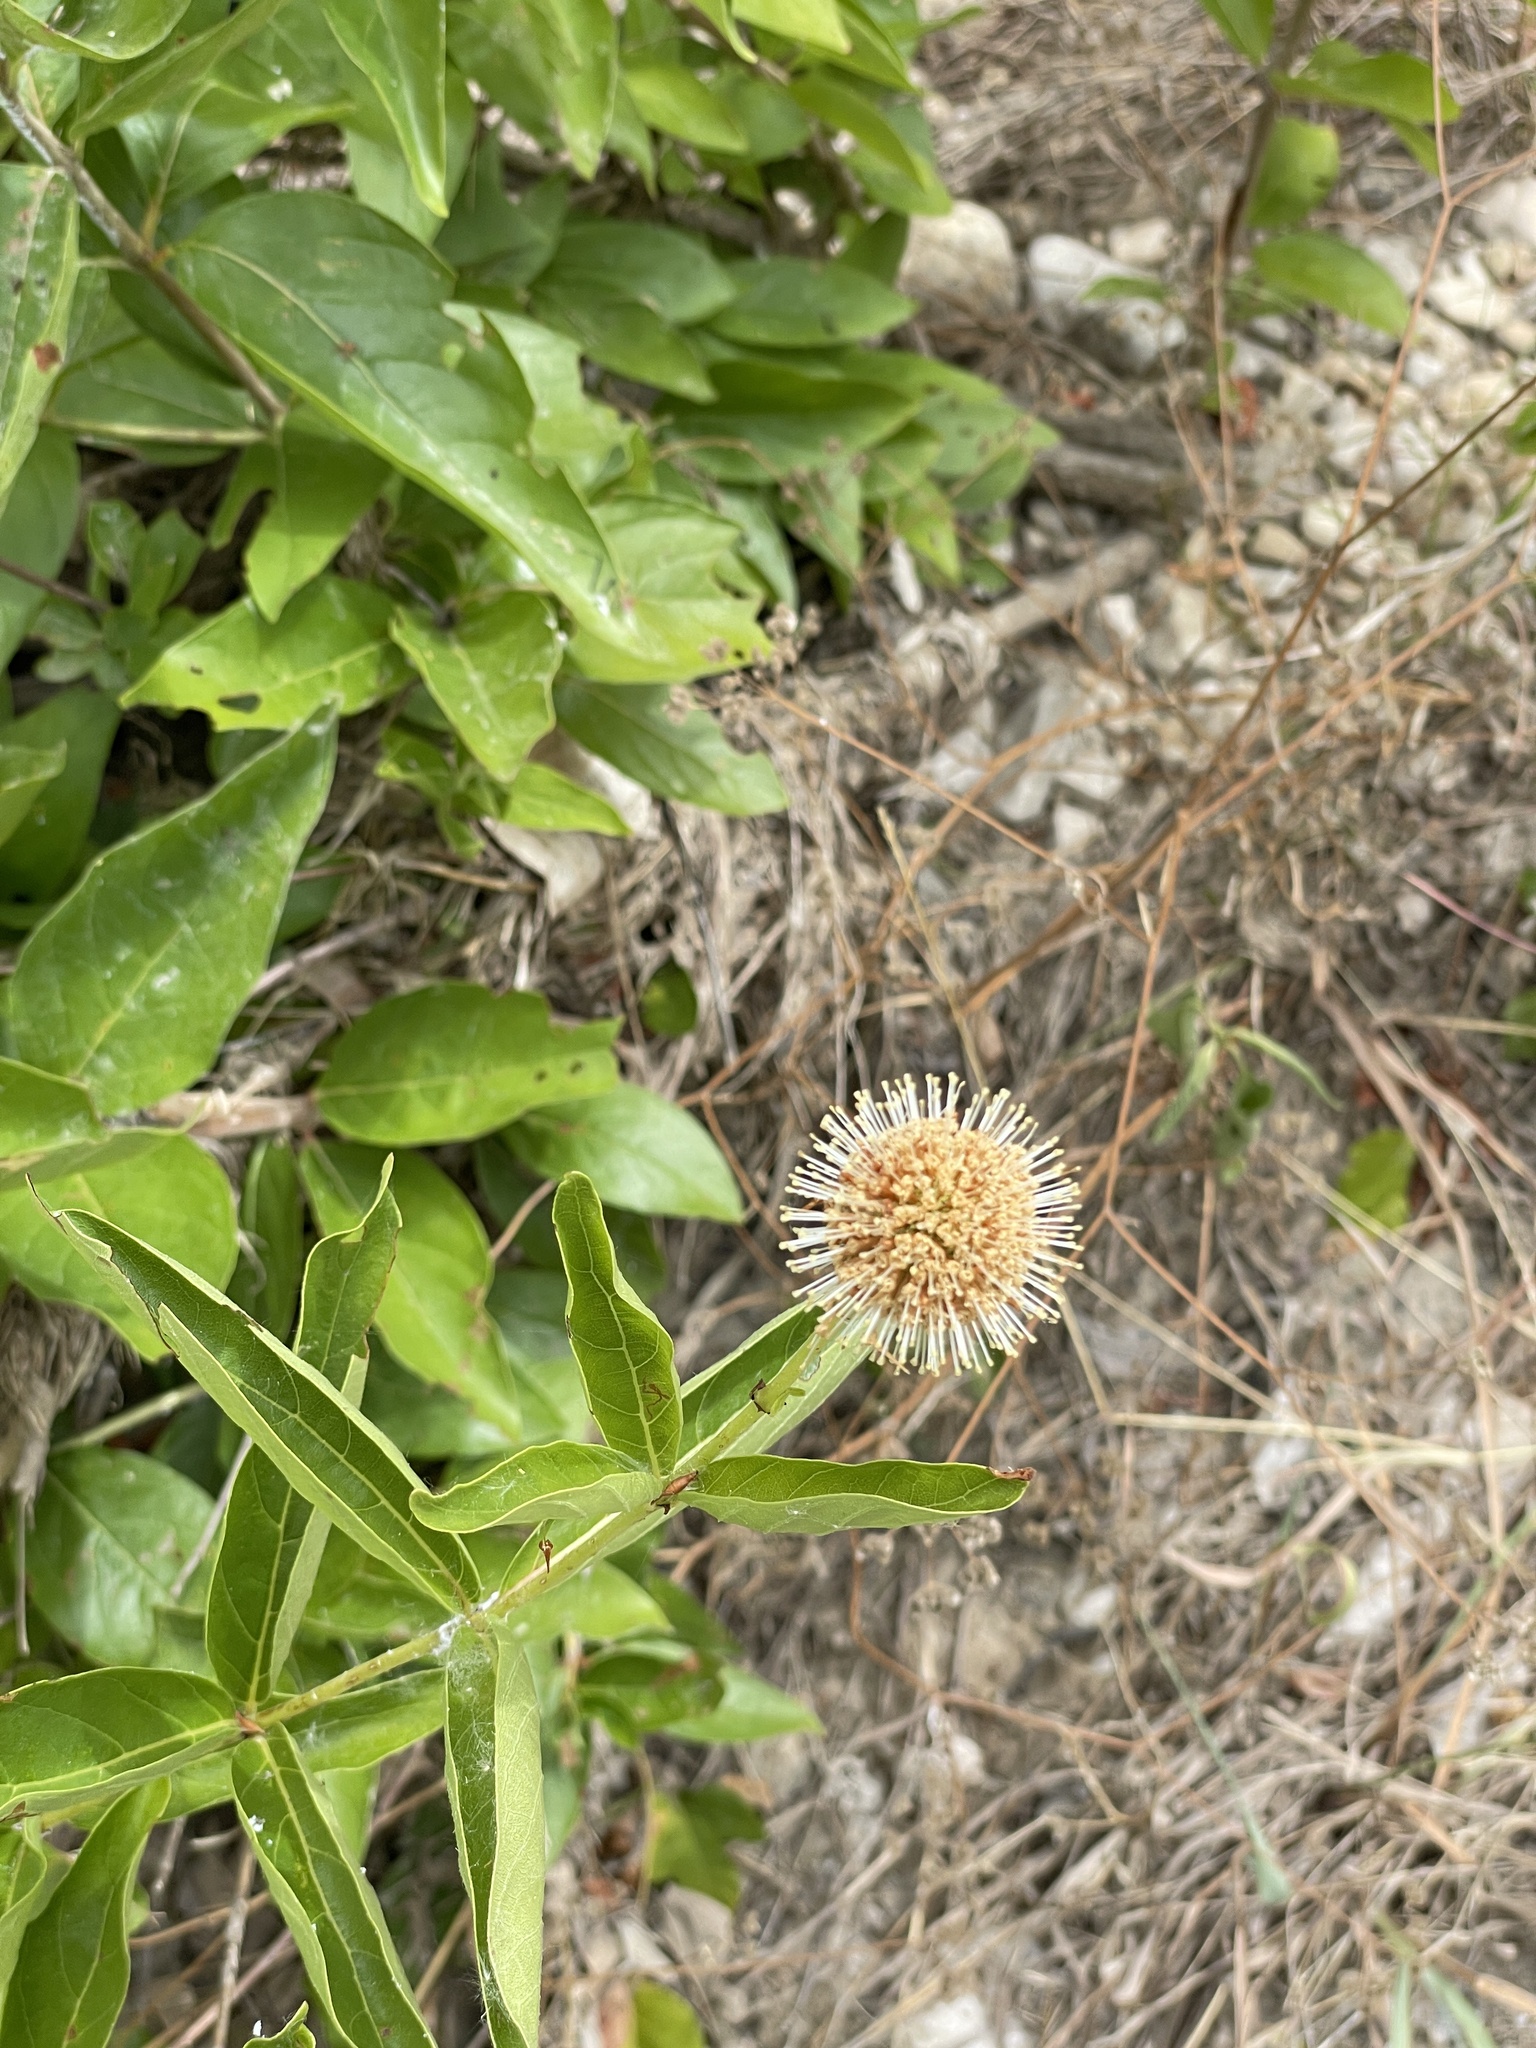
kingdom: Plantae
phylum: Tracheophyta
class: Magnoliopsida
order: Gentianales
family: Rubiaceae
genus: Cephalanthus
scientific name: Cephalanthus occidentalis
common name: Button-willow
